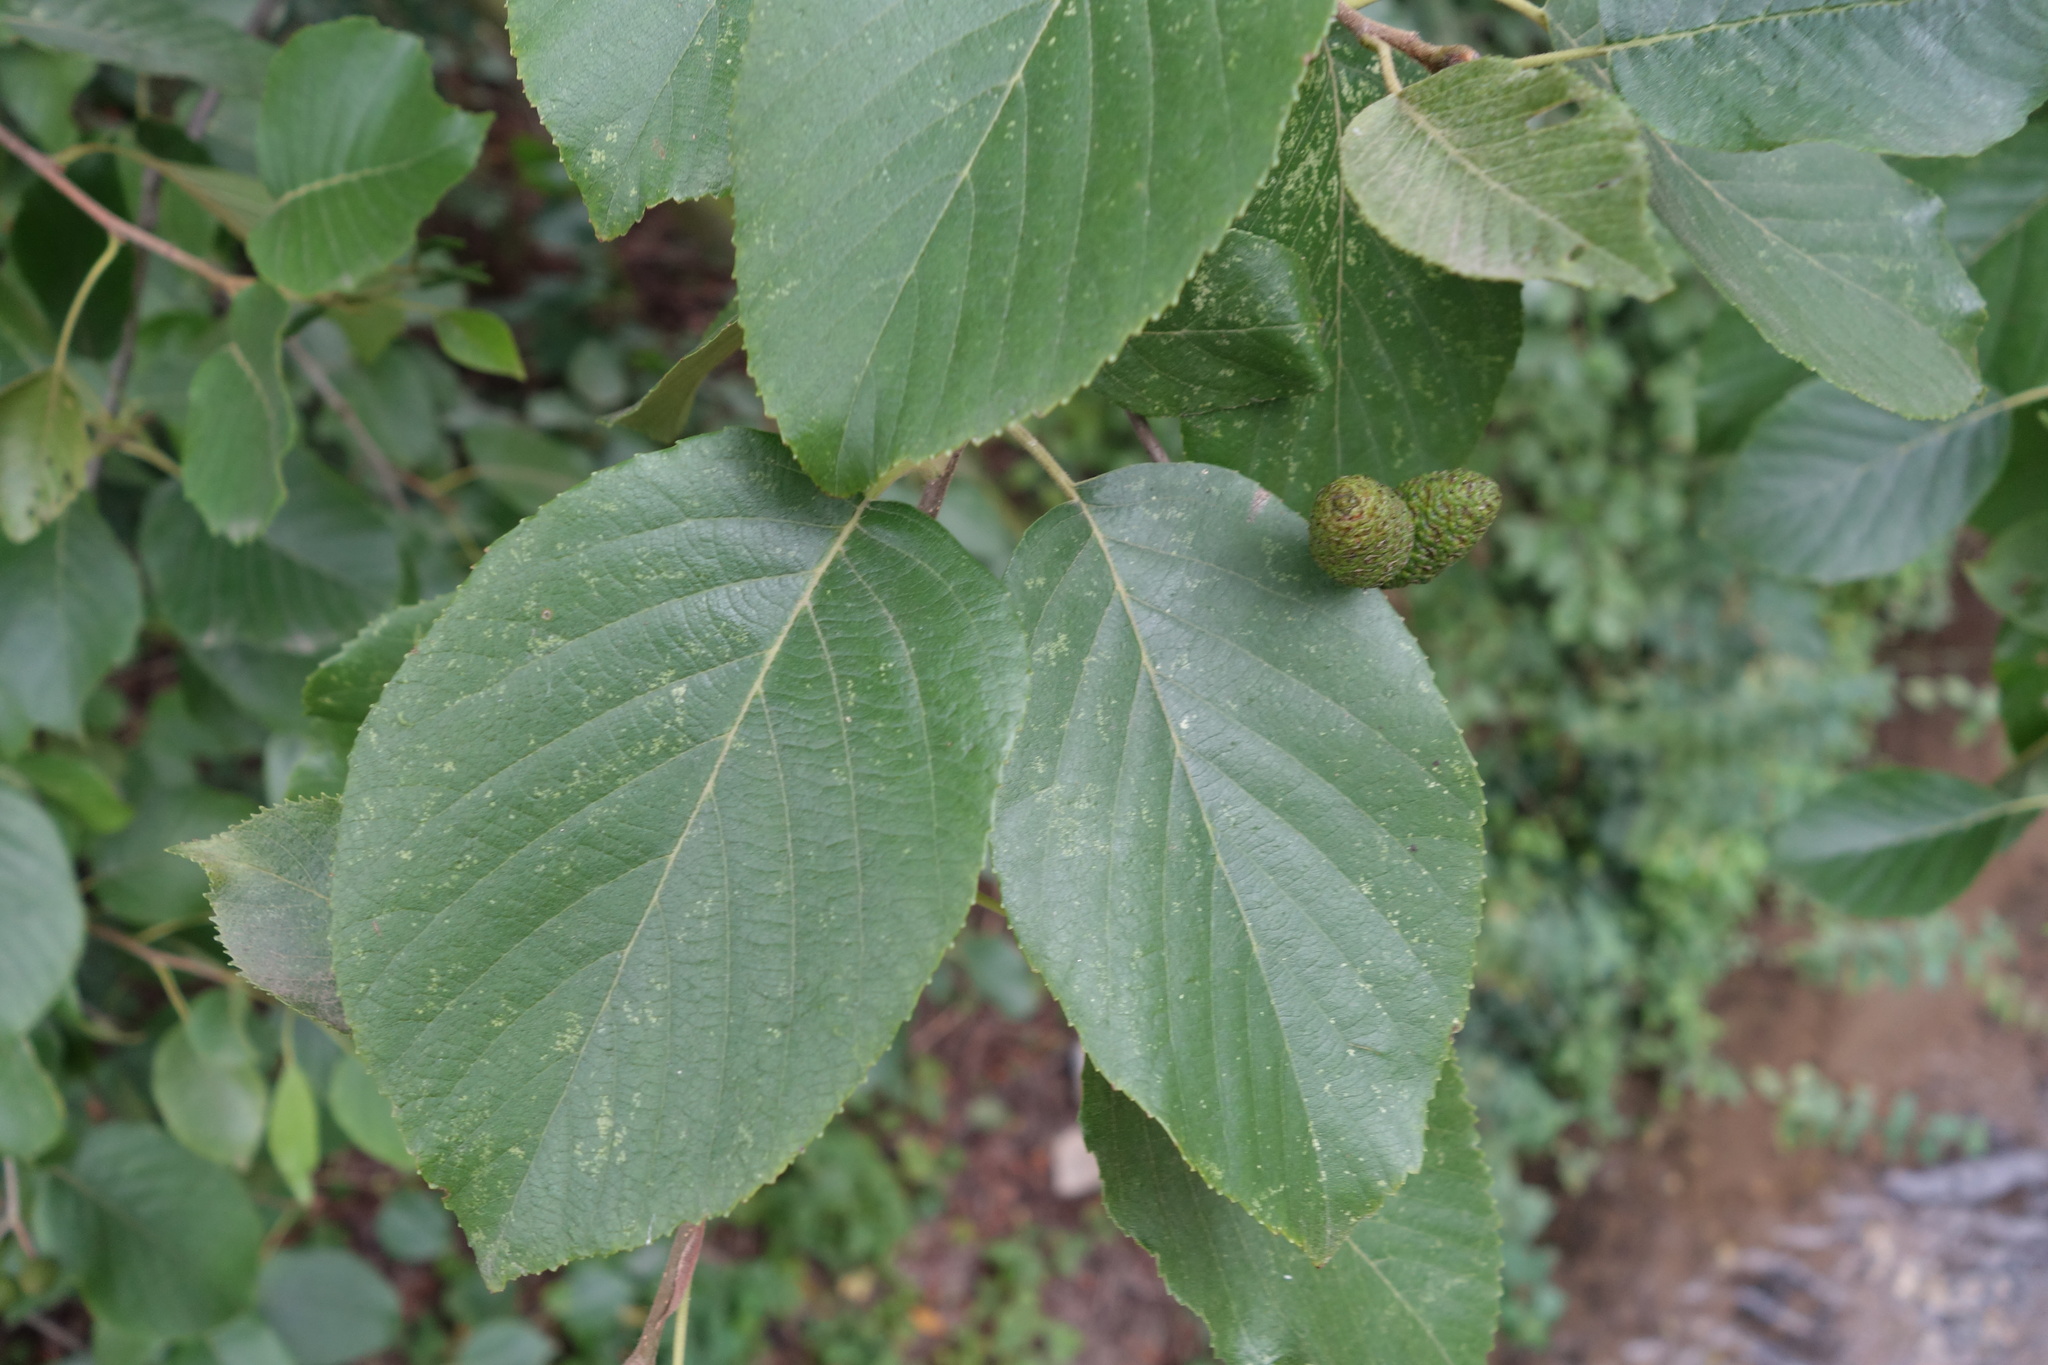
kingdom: Plantae
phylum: Tracheophyta
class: Magnoliopsida
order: Fagales
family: Betulaceae
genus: Alnus
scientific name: Alnus incana
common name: Grey alder
